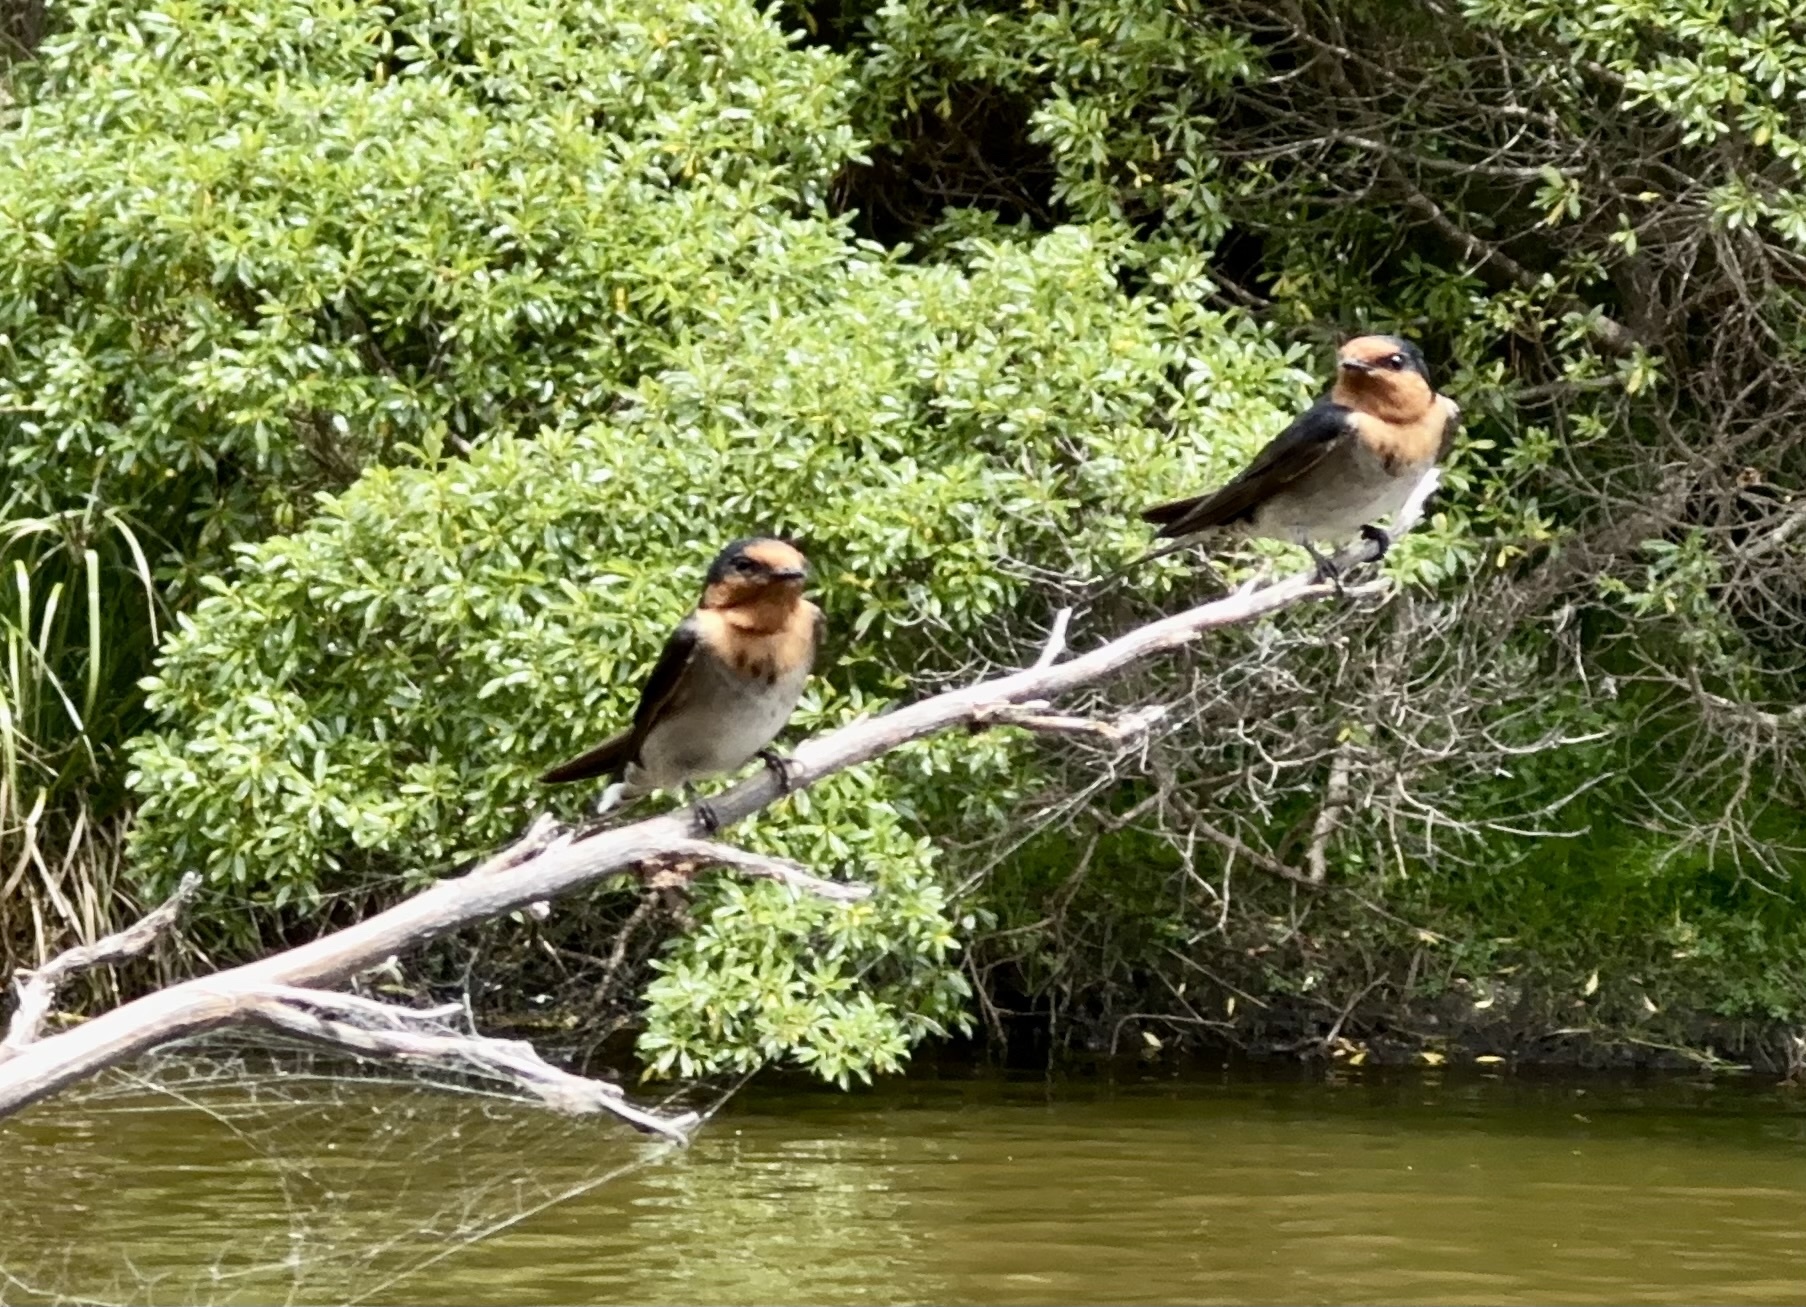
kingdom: Animalia
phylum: Chordata
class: Aves
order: Passeriformes
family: Hirundinidae
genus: Hirundo
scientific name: Hirundo neoxena
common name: Welcome swallow
